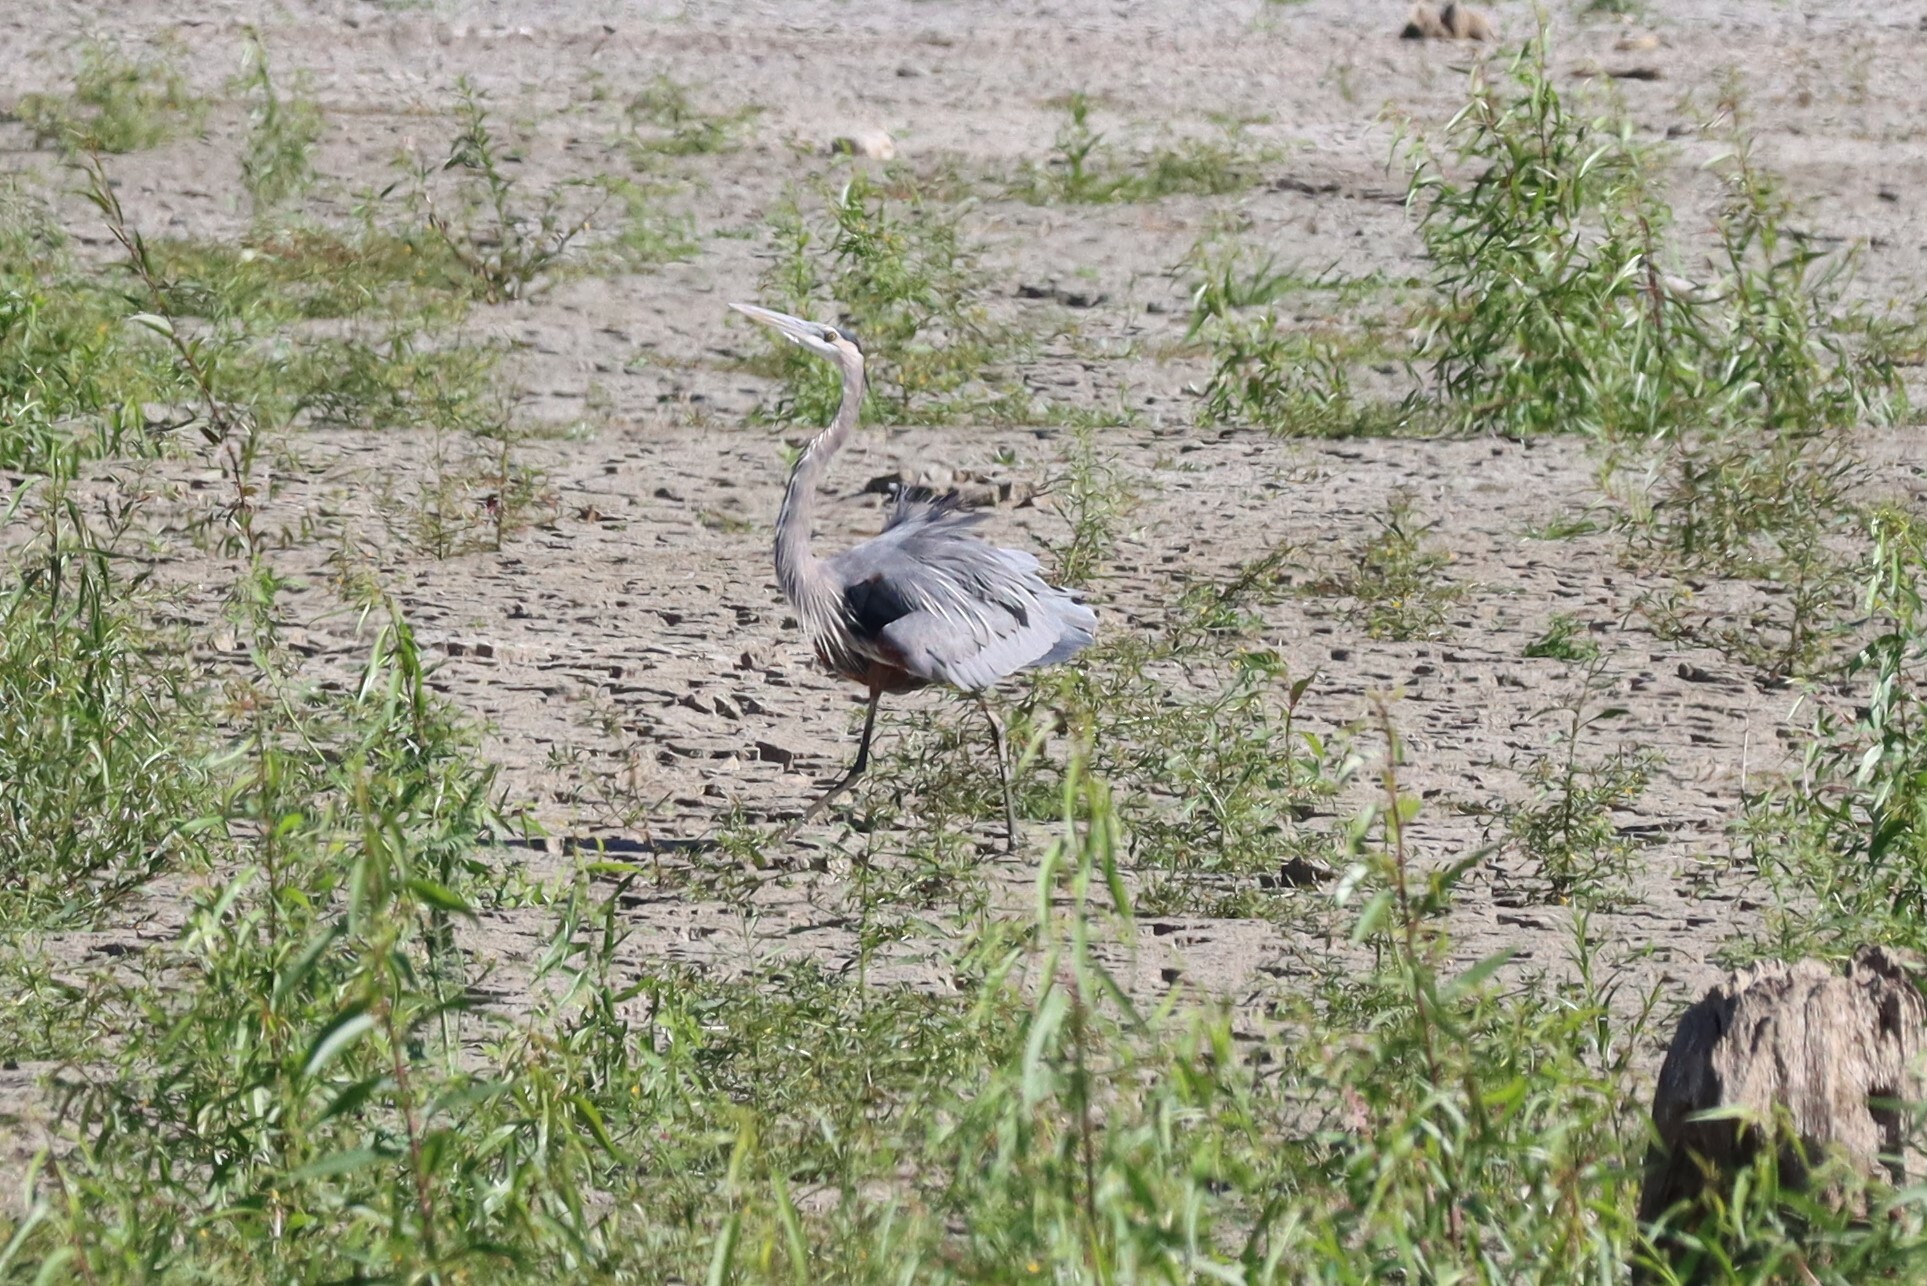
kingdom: Animalia
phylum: Chordata
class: Aves
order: Pelecaniformes
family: Ardeidae
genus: Ardea
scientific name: Ardea herodias
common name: Great blue heron
